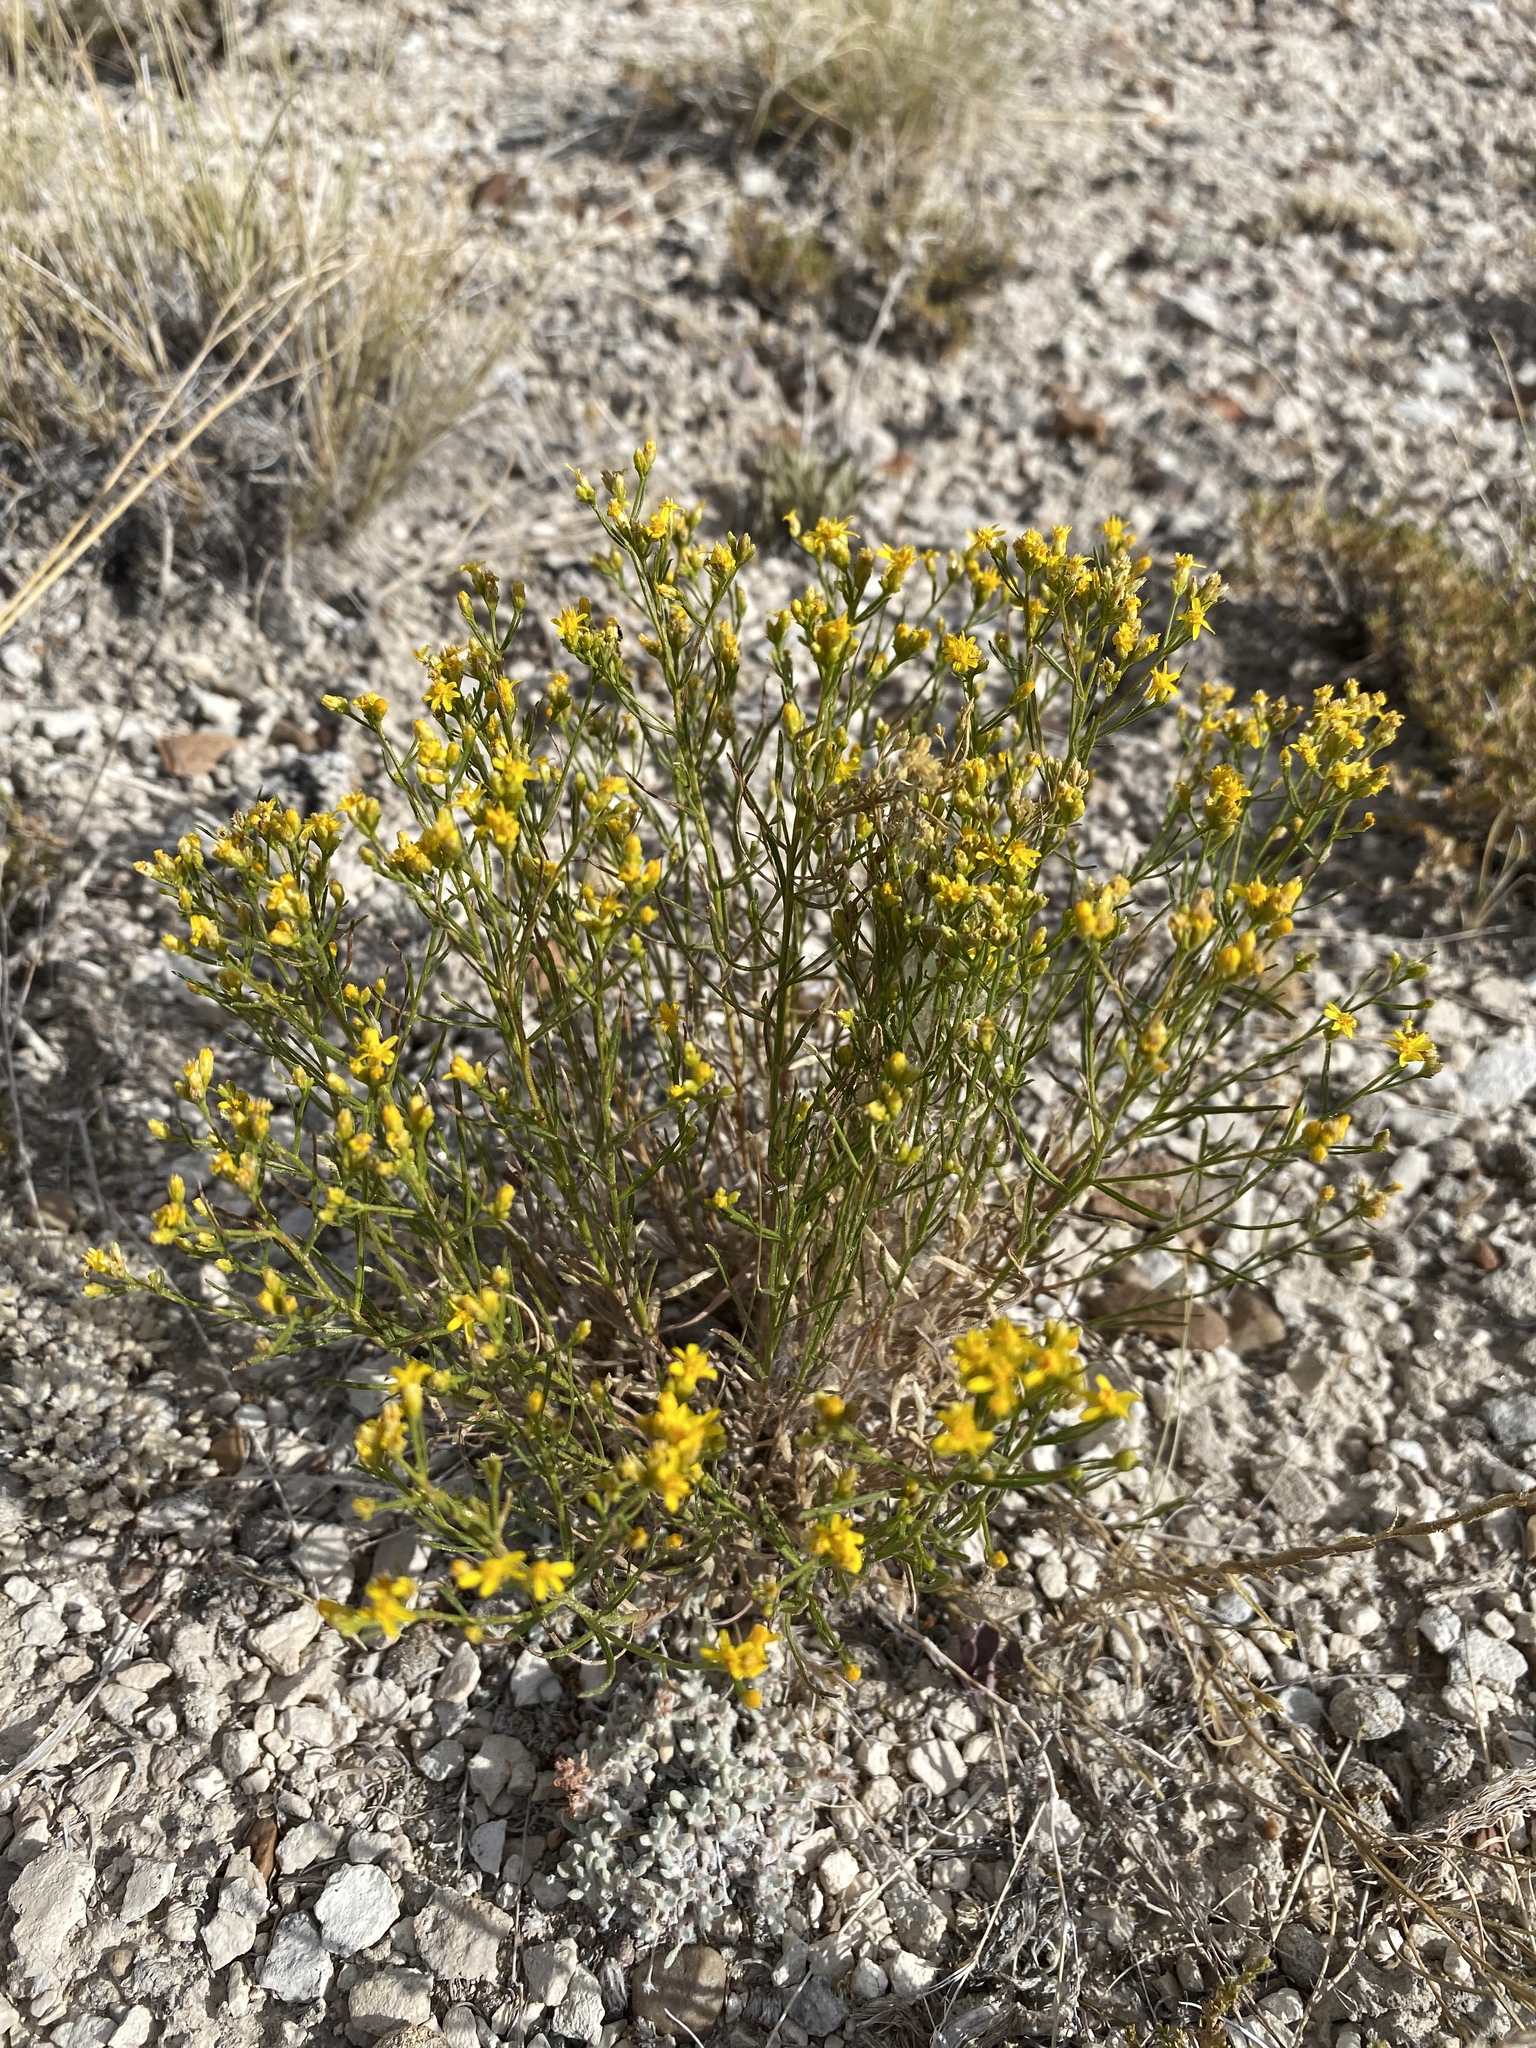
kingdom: Plantae
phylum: Tracheophyta
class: Magnoliopsida
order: Asterales
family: Asteraceae
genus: Gutierrezia
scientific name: Gutierrezia sarothrae
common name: Broom snakeweed
